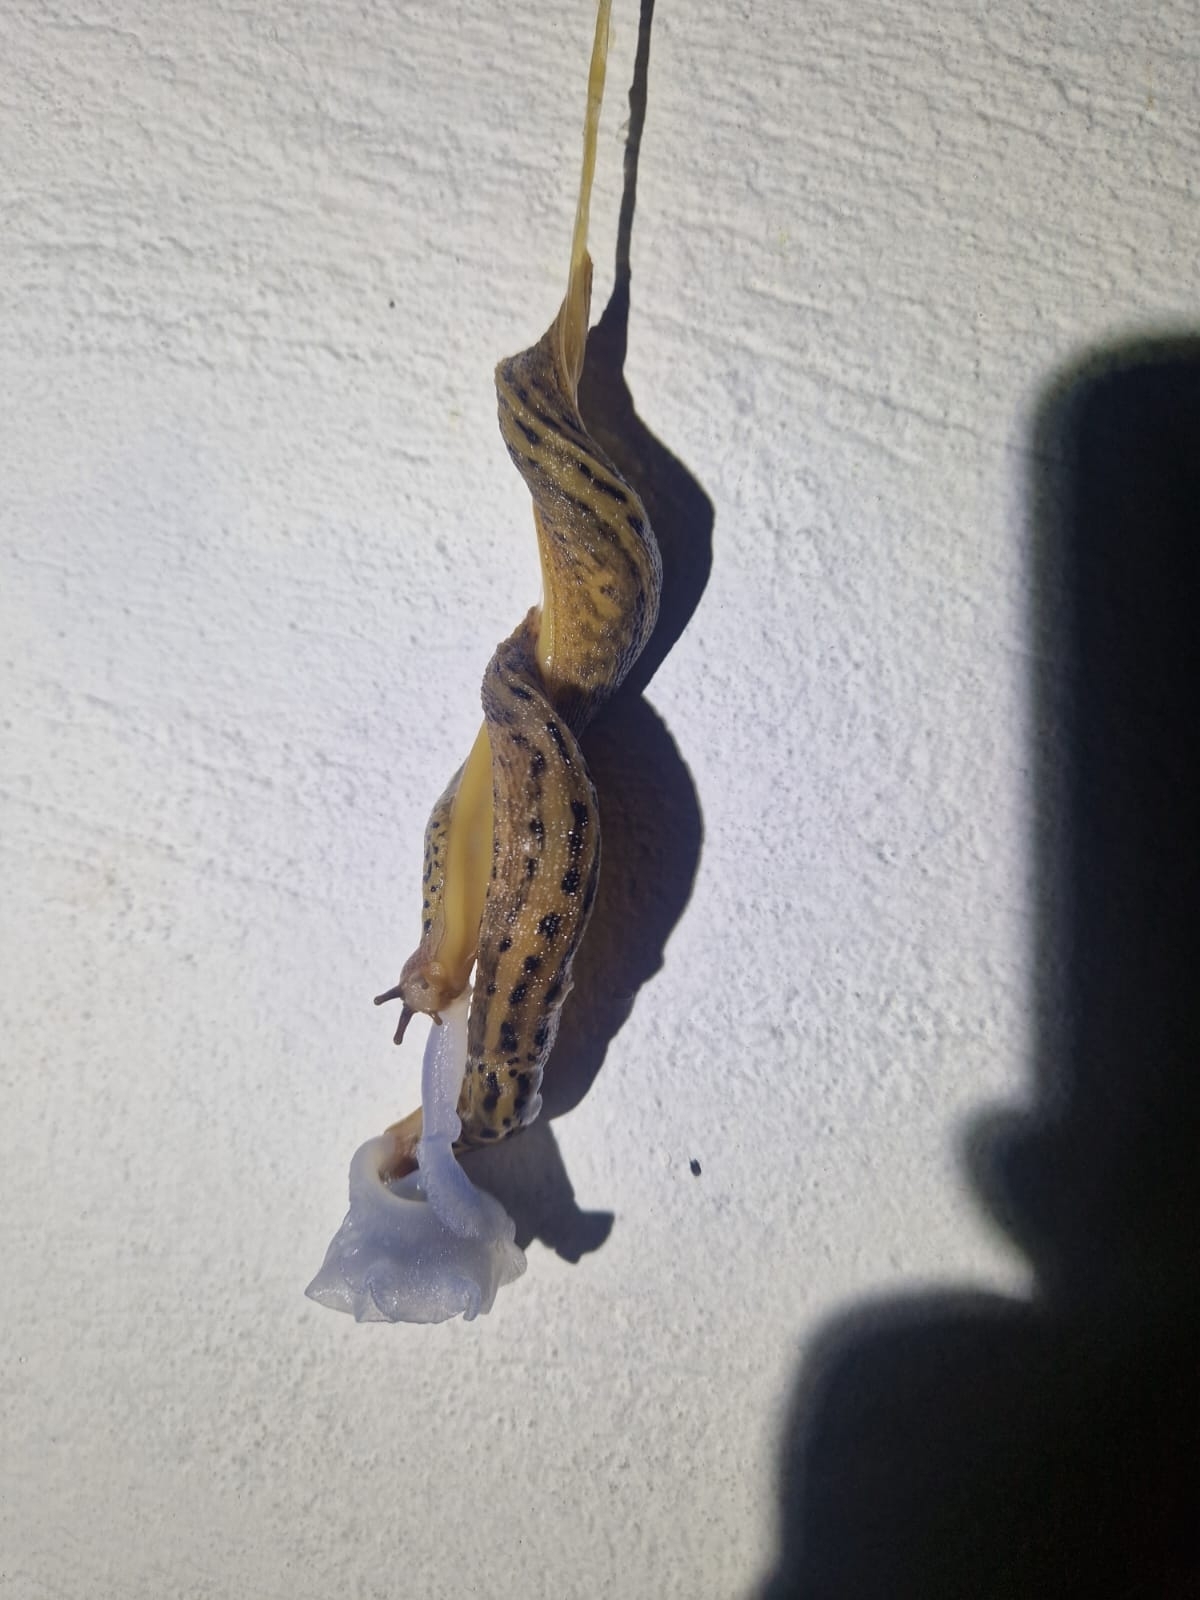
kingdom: Animalia
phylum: Mollusca
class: Gastropoda
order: Stylommatophora
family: Limacidae
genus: Limax
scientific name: Limax maximus
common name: Great grey slug
